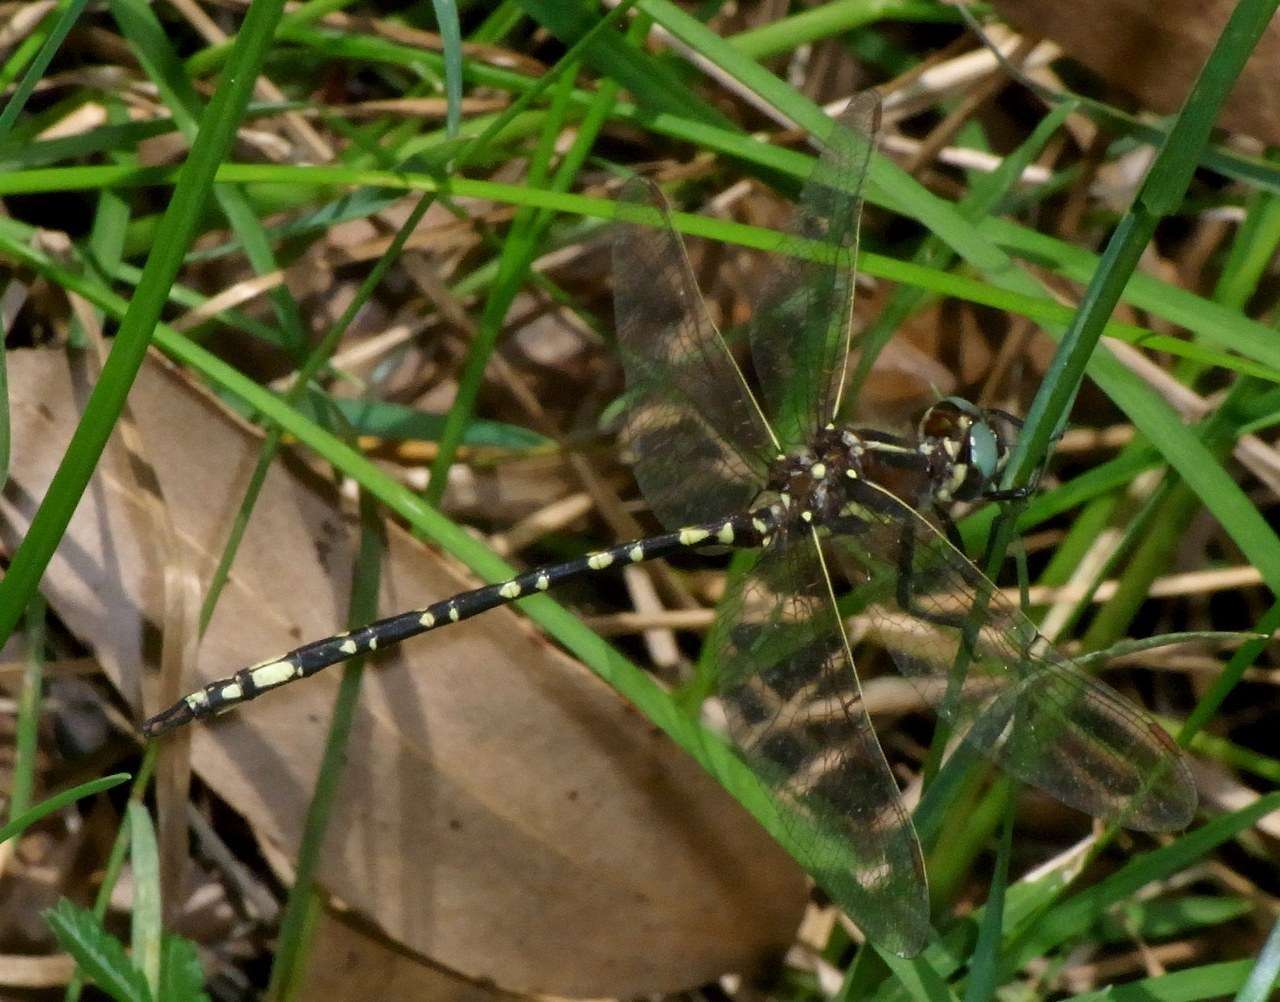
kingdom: Animalia
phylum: Arthropoda
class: Insecta
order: Odonata
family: Synthemistidae
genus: Synthemis
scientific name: Synthemis eustalacta
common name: Swamp tigertail
